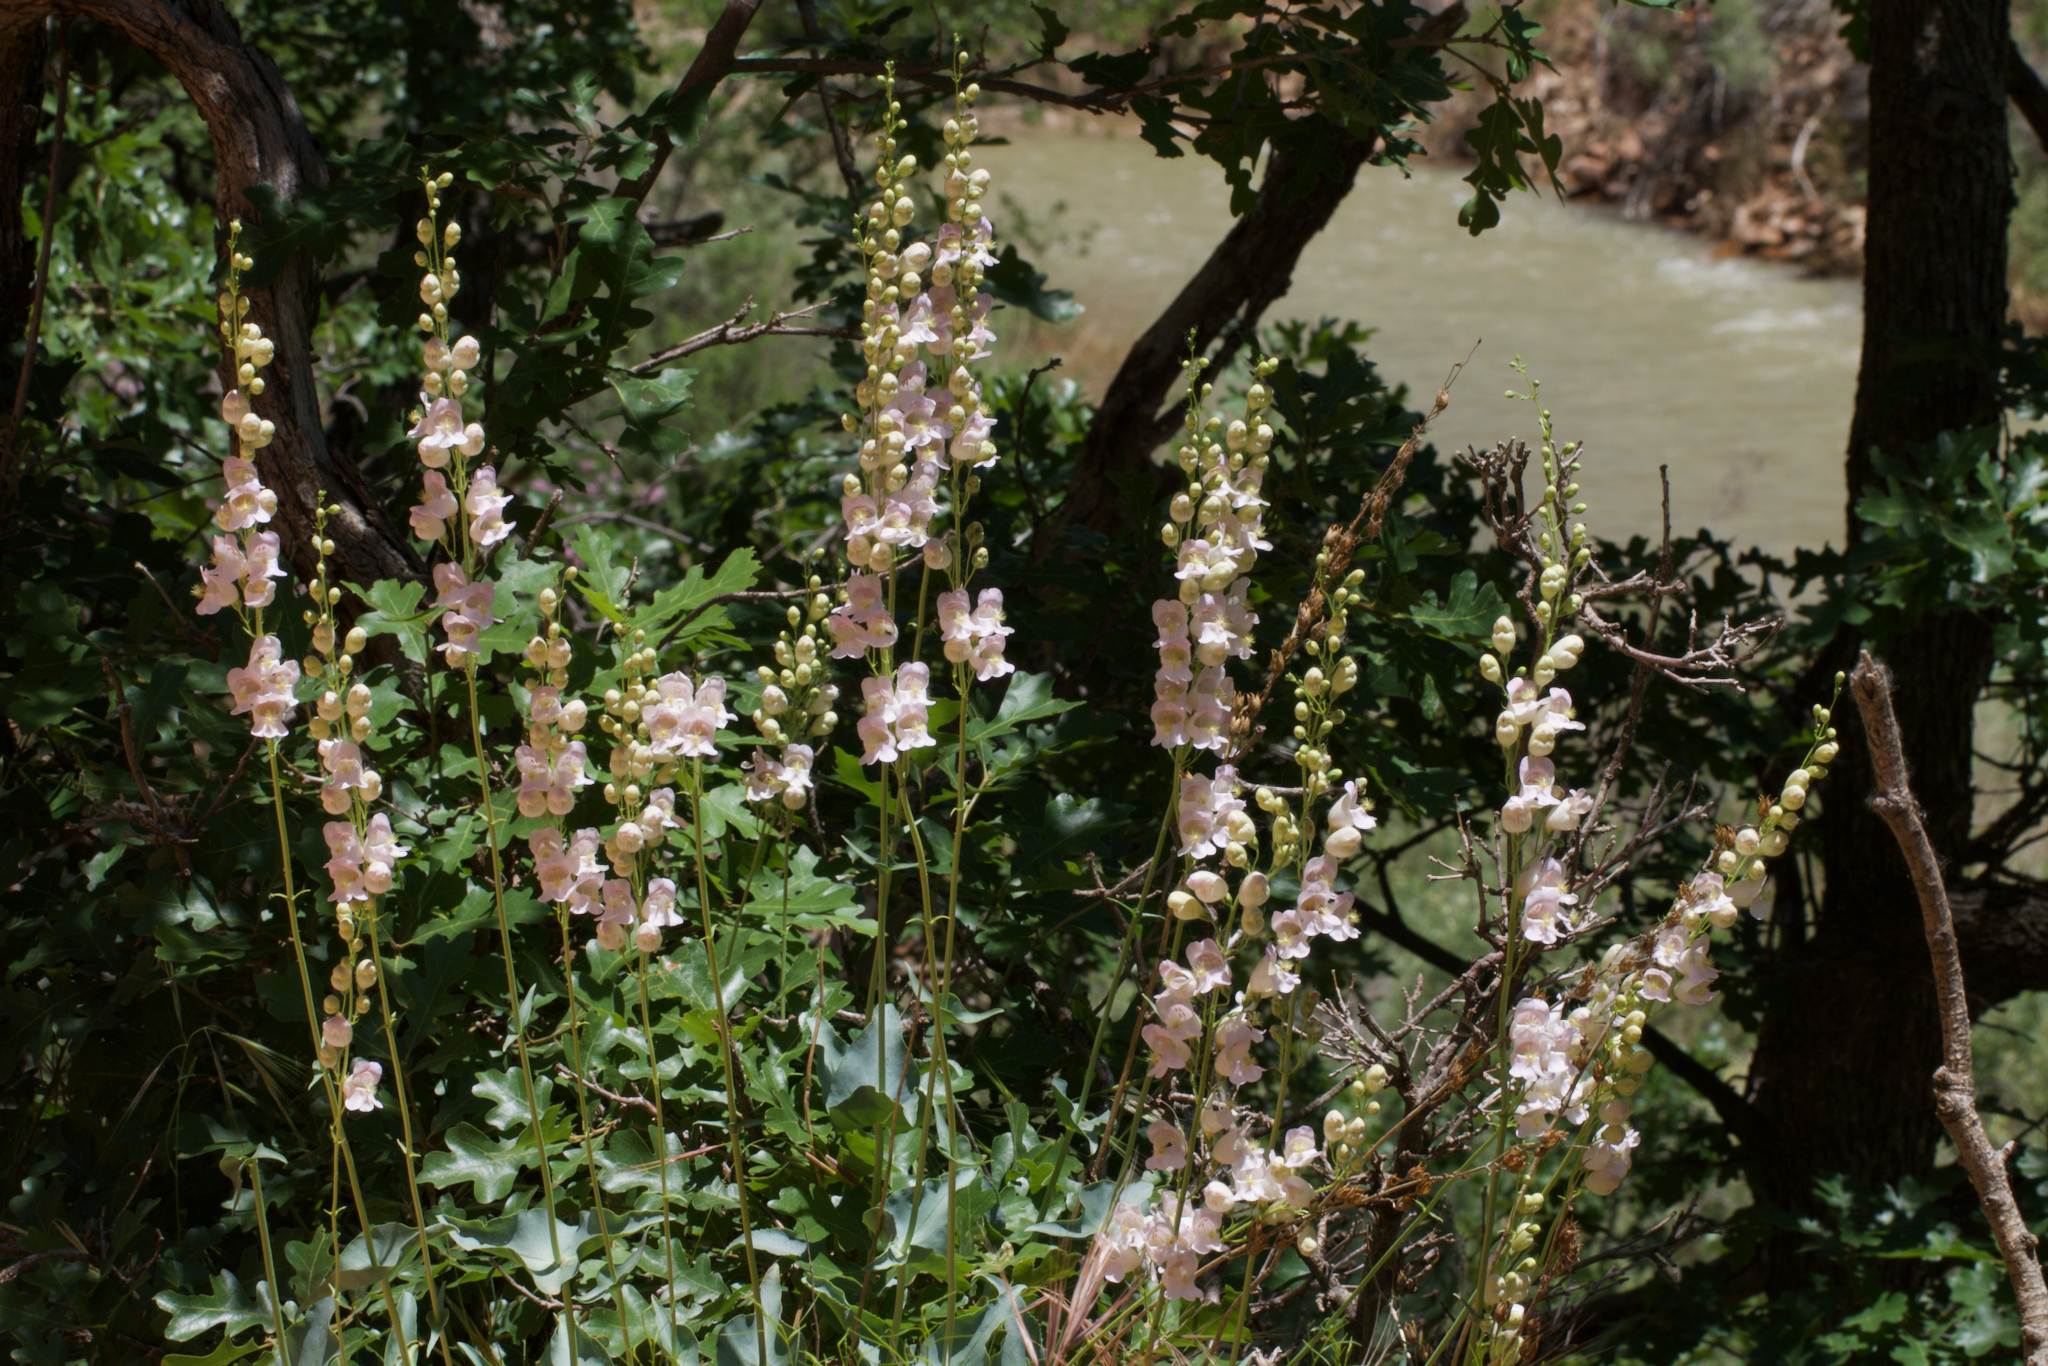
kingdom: Plantae
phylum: Tracheophyta
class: Magnoliopsida
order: Lamiales
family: Plantaginaceae
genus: Penstemon
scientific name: Penstemon palmeri
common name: Palmer penstemon
